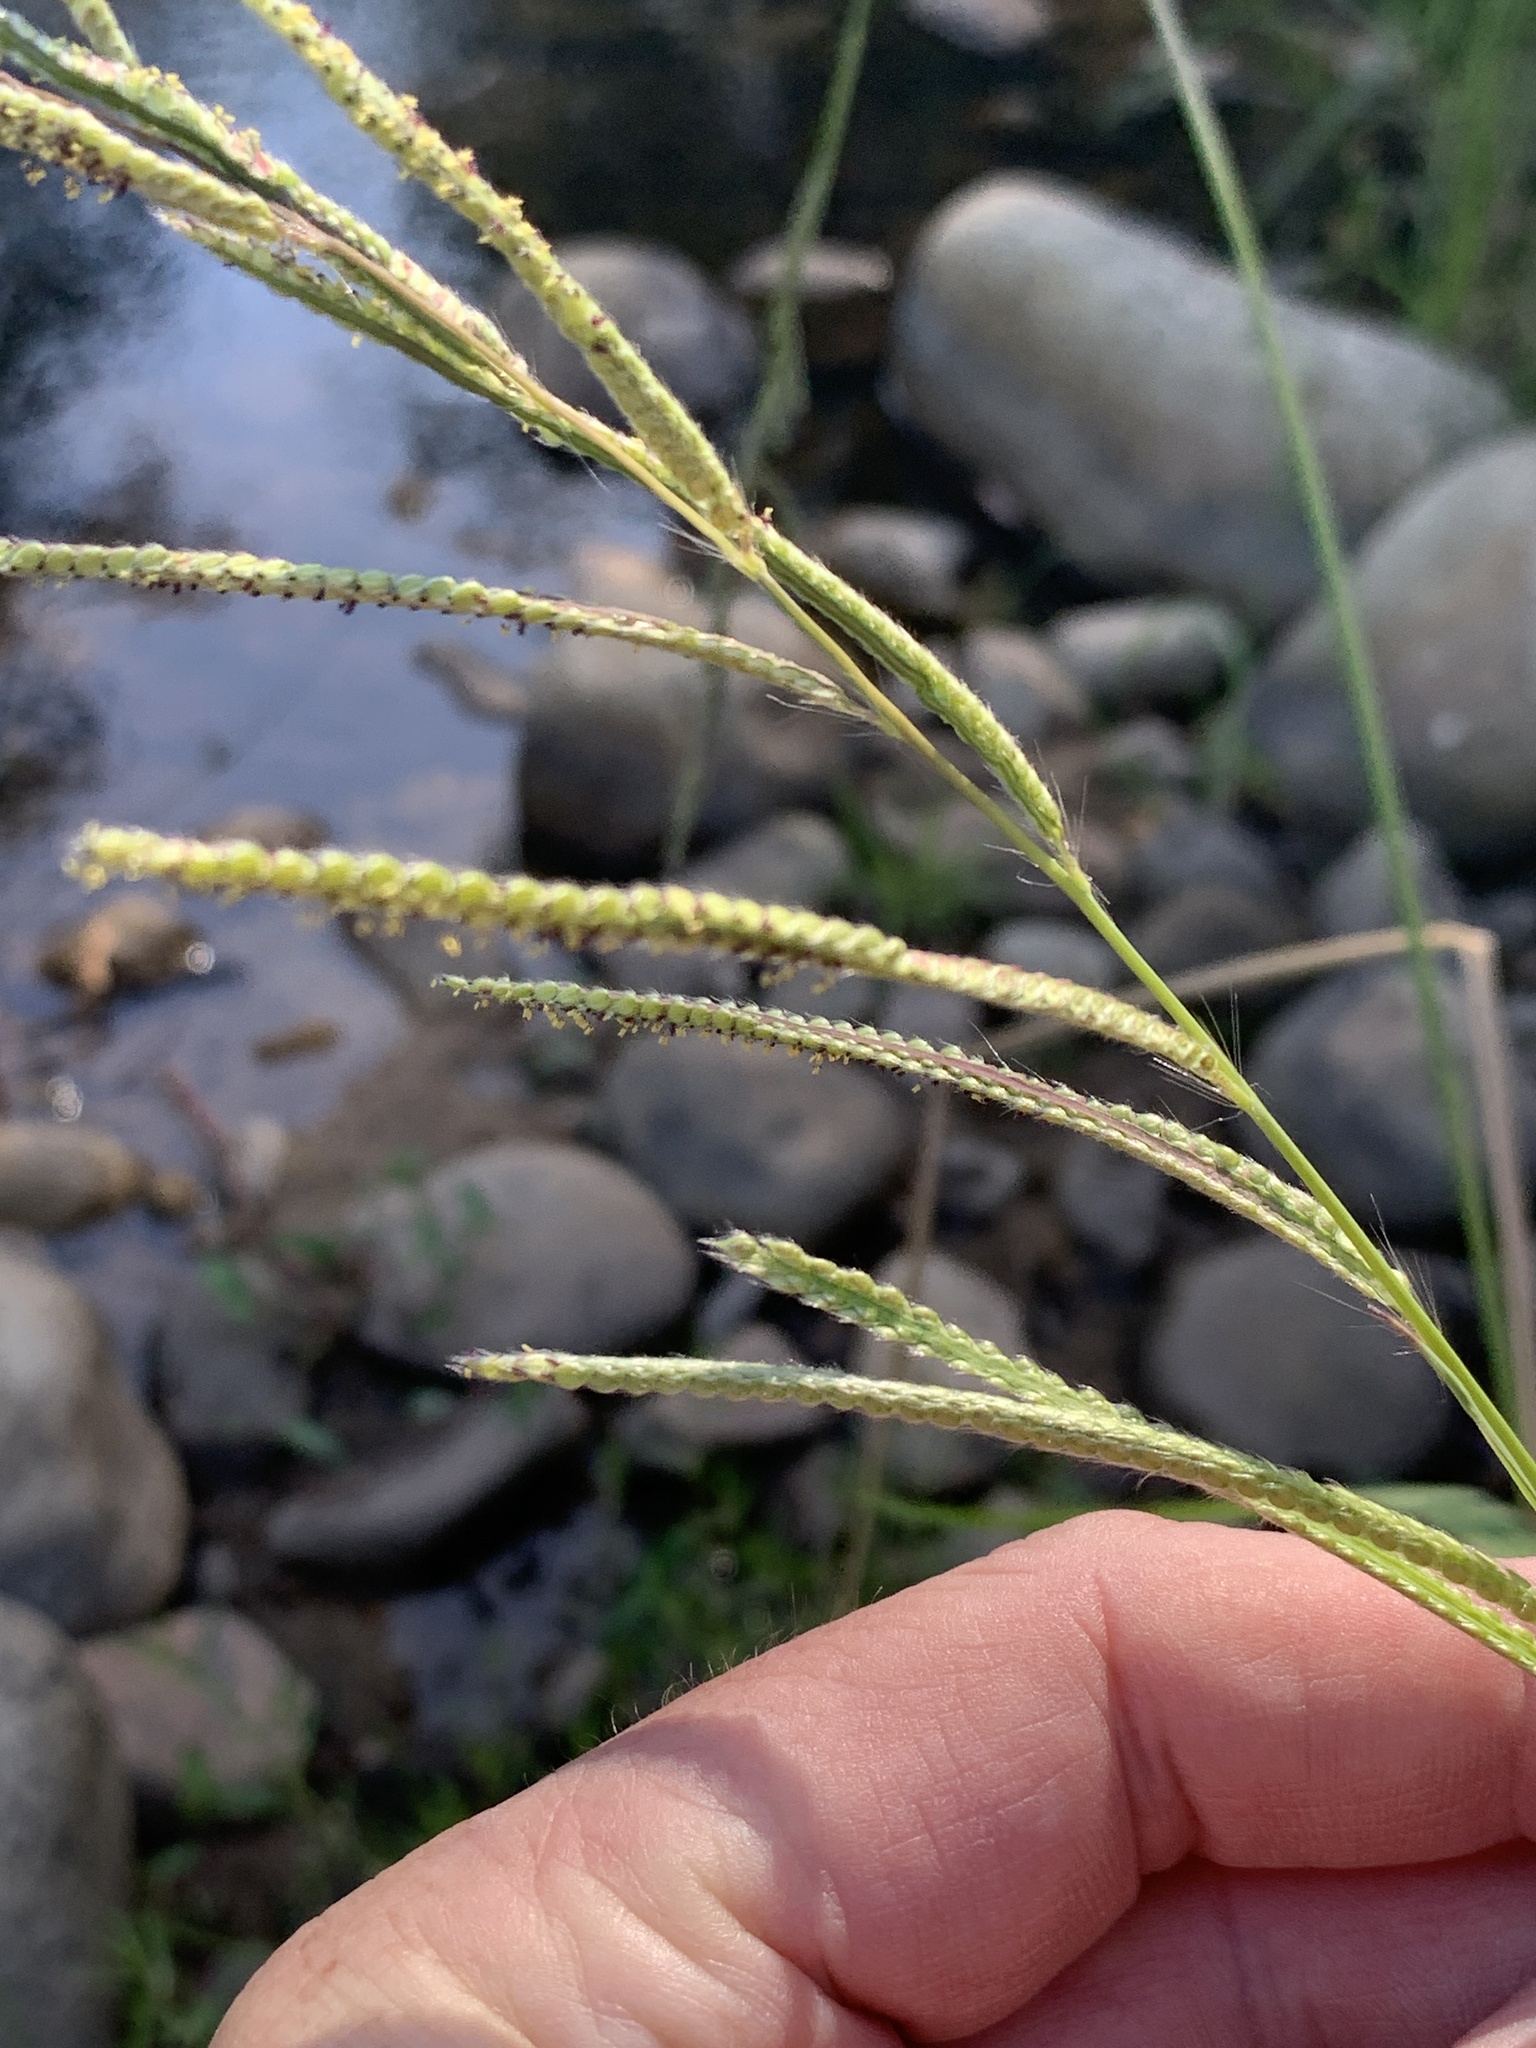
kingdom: Plantae
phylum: Tracheophyta
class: Liliopsida
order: Poales
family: Poaceae
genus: Paspalum
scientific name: Paspalum urvillei
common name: Vasey's grass
